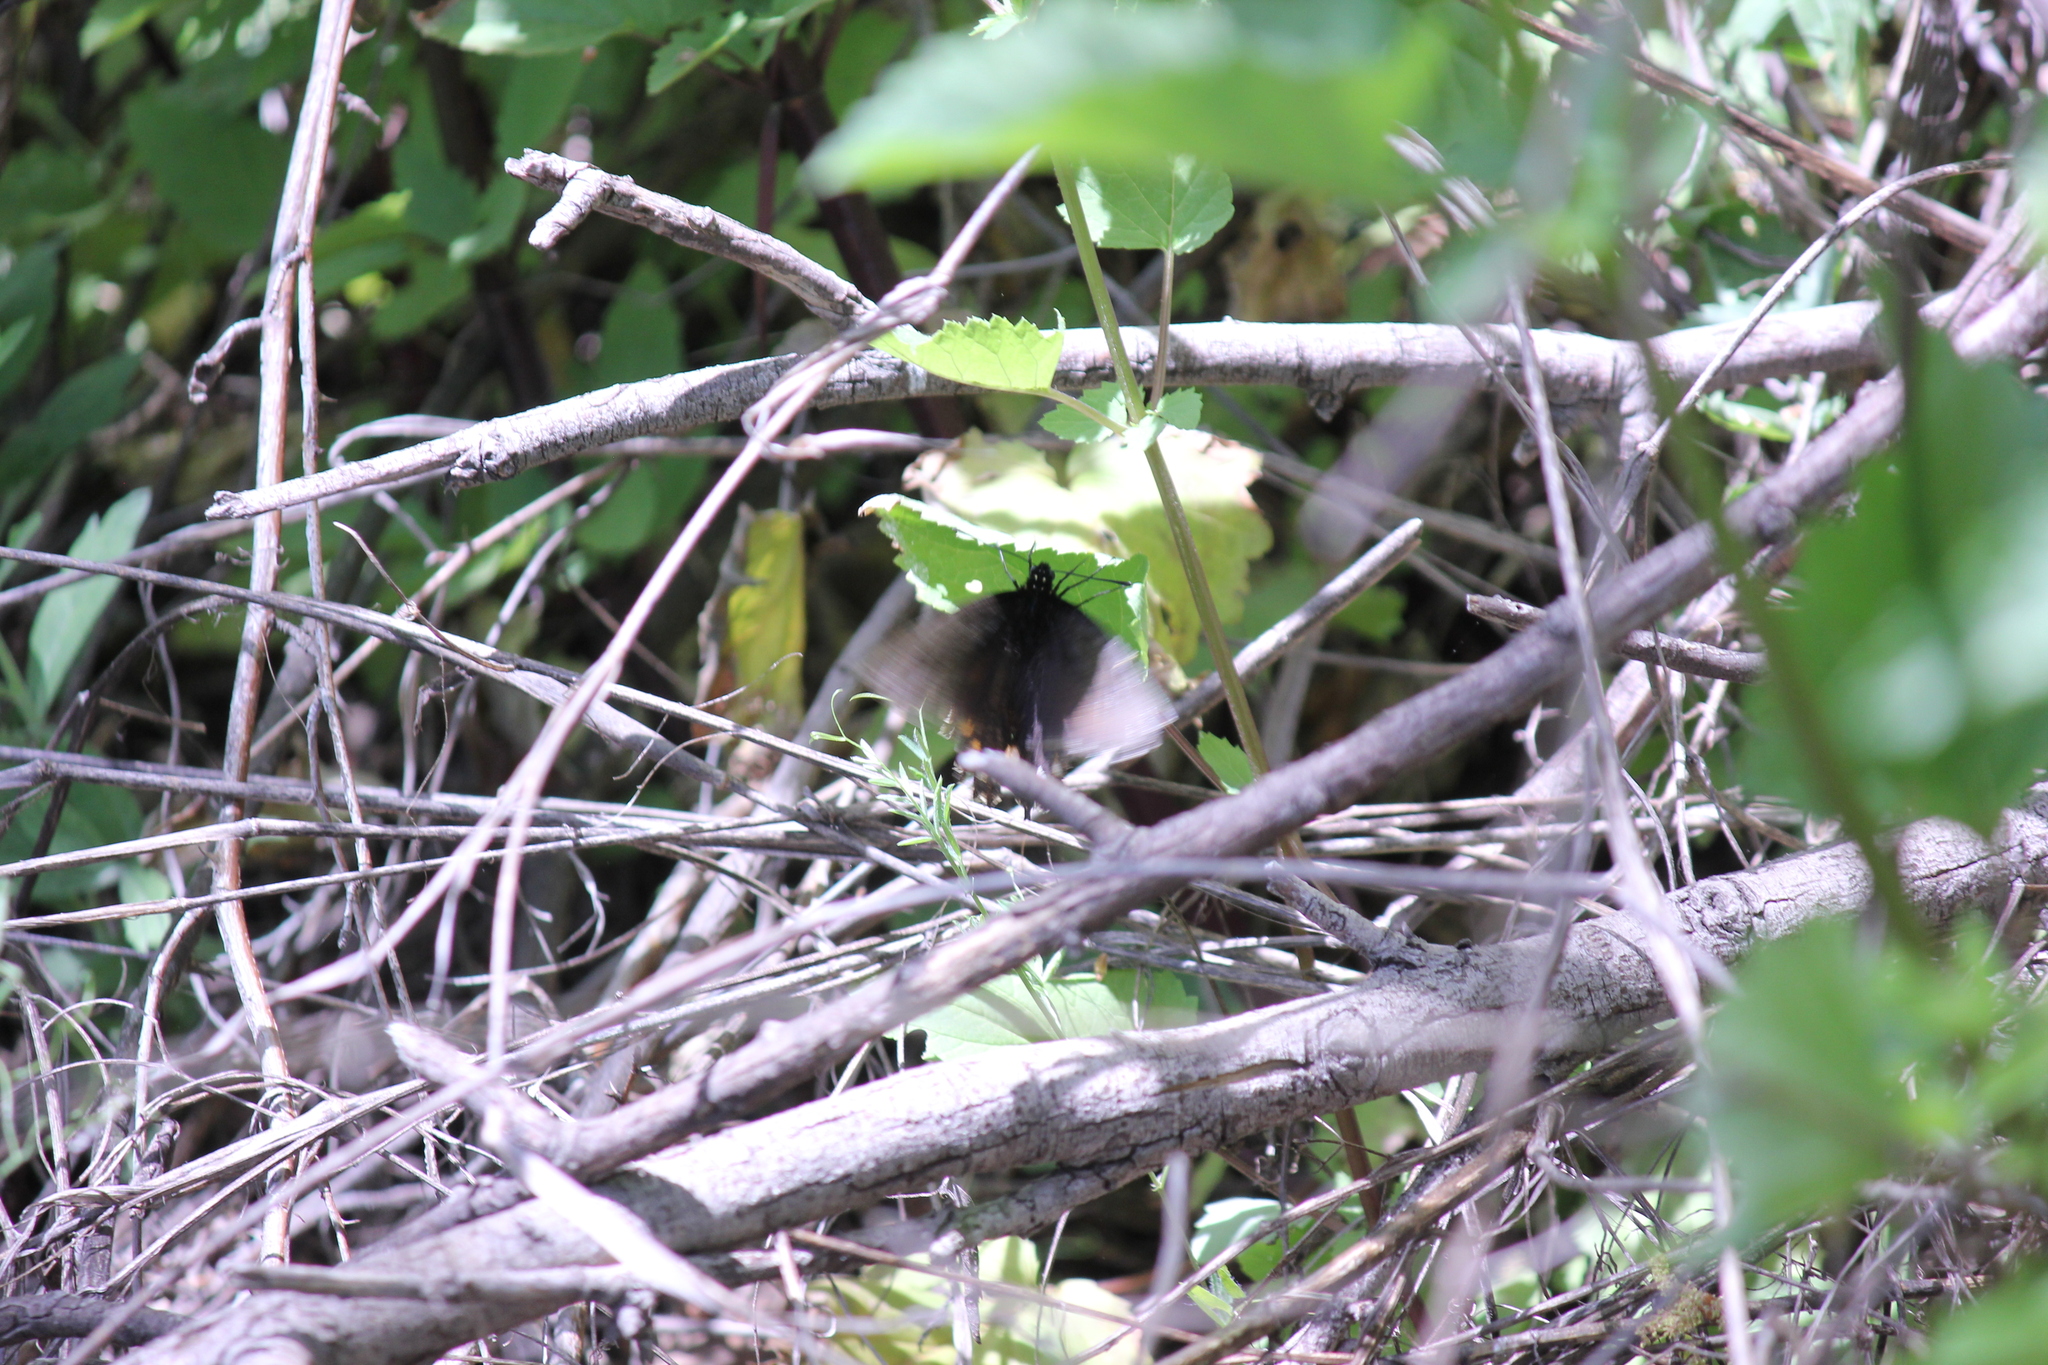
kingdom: Animalia
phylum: Arthropoda
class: Insecta
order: Lepidoptera
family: Papilionidae
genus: Battus
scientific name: Battus philenor
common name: Pipevine swallowtail
